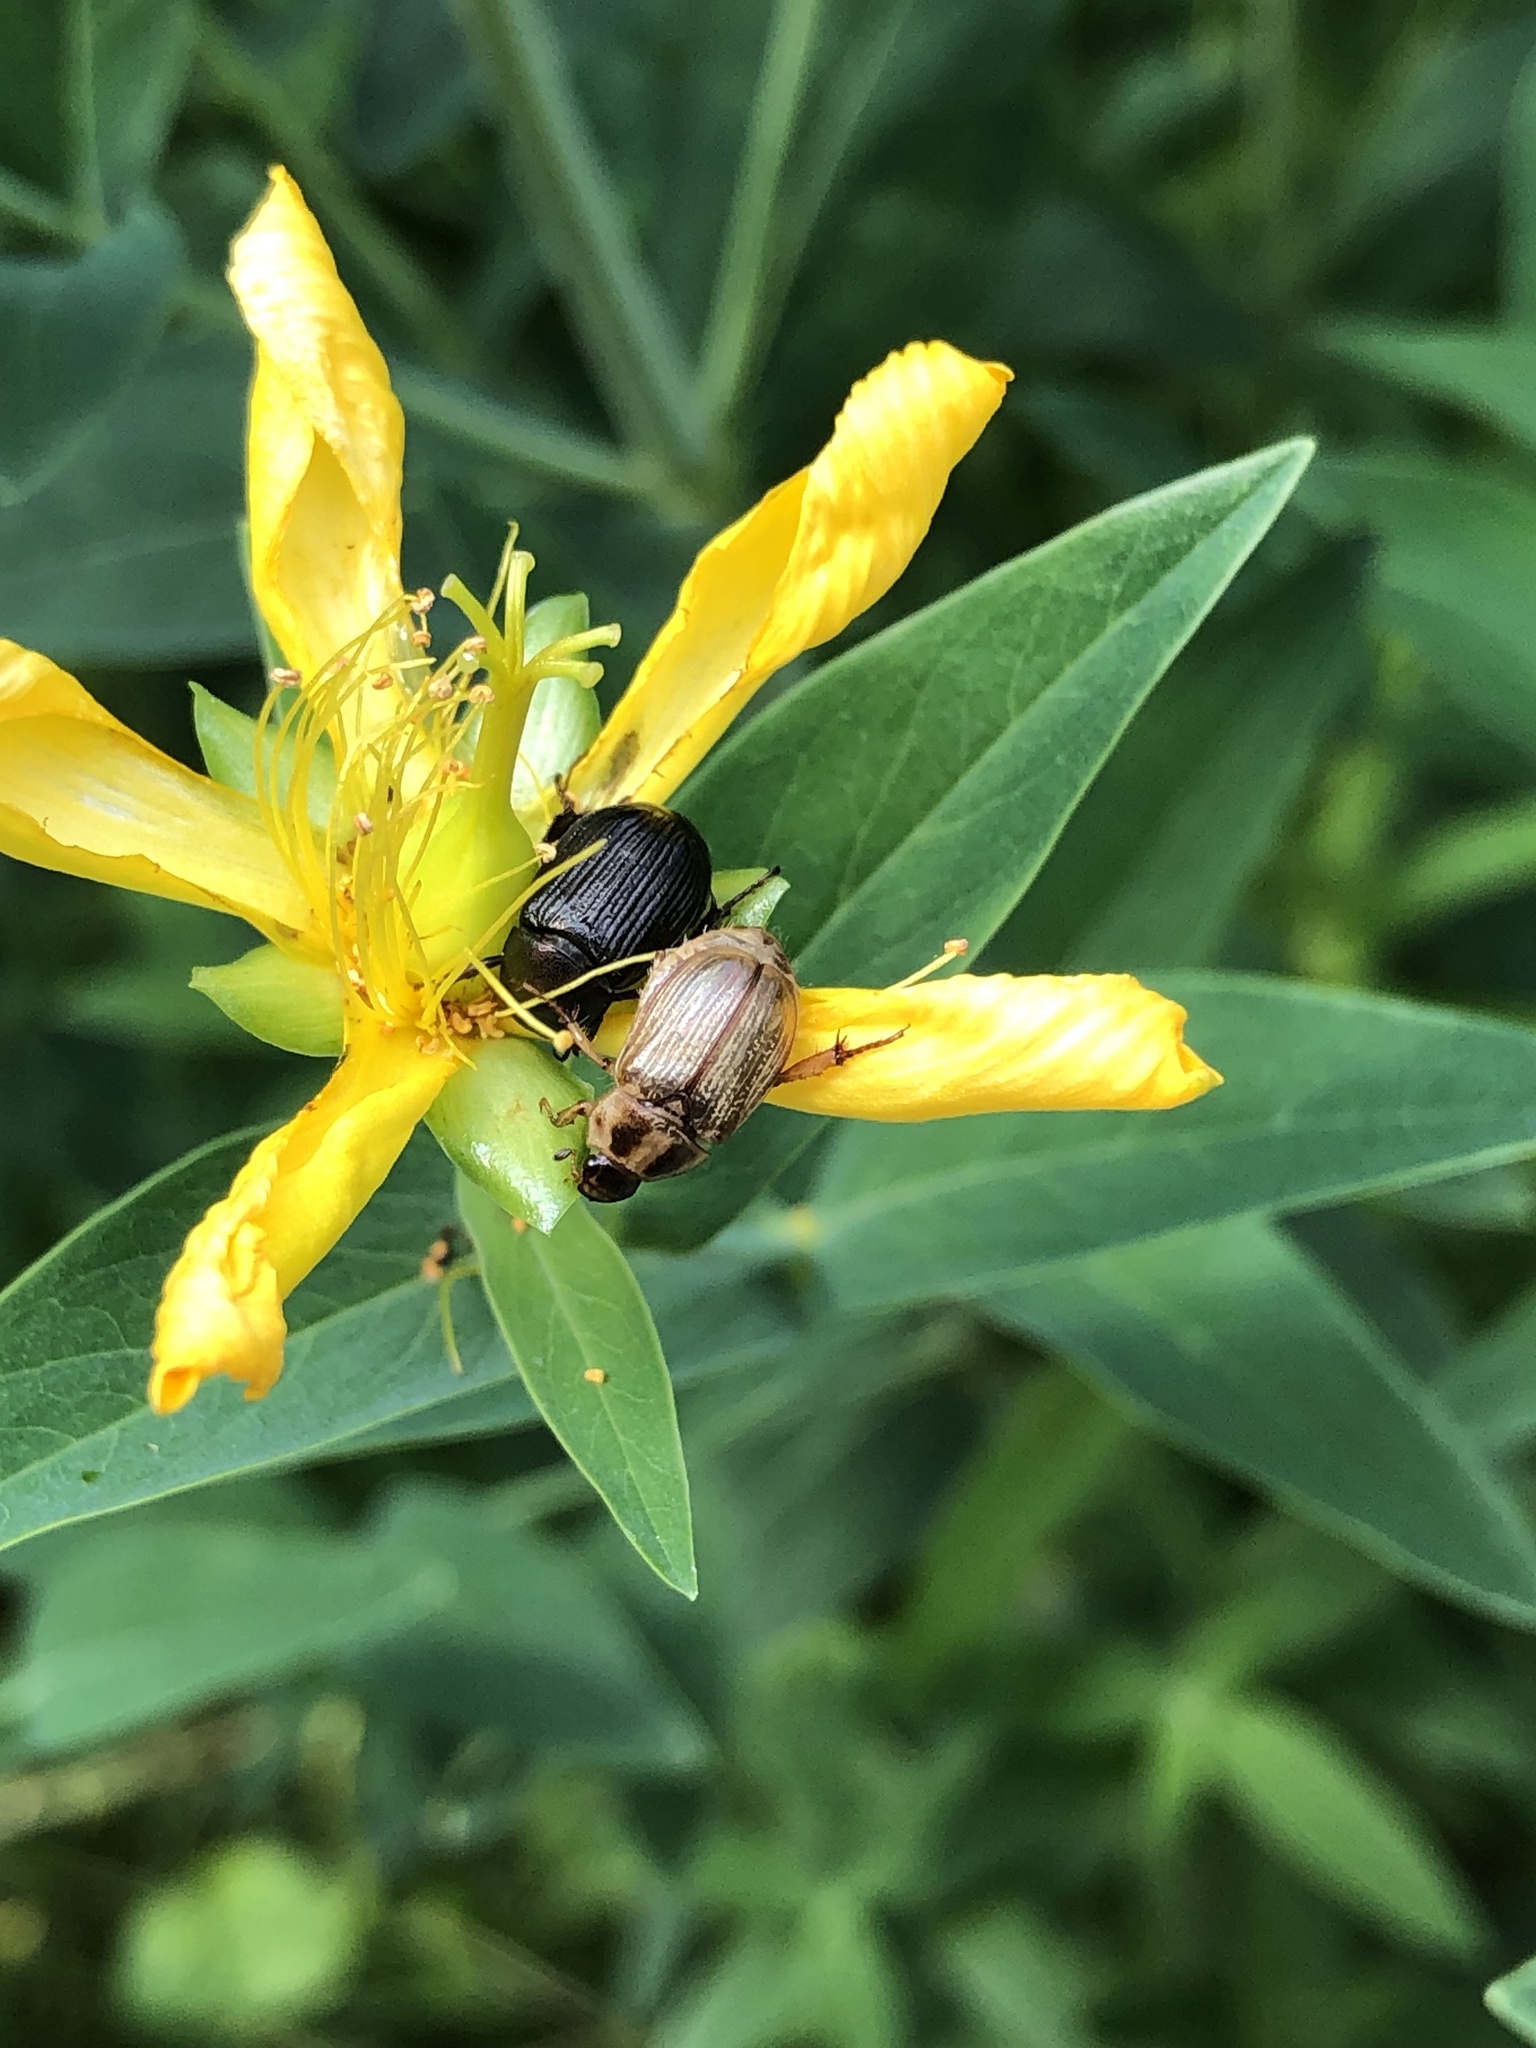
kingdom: Animalia
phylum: Arthropoda
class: Insecta
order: Coleoptera
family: Scarabaeidae
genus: Exomala
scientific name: Exomala orientalis
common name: Oriental beetle
